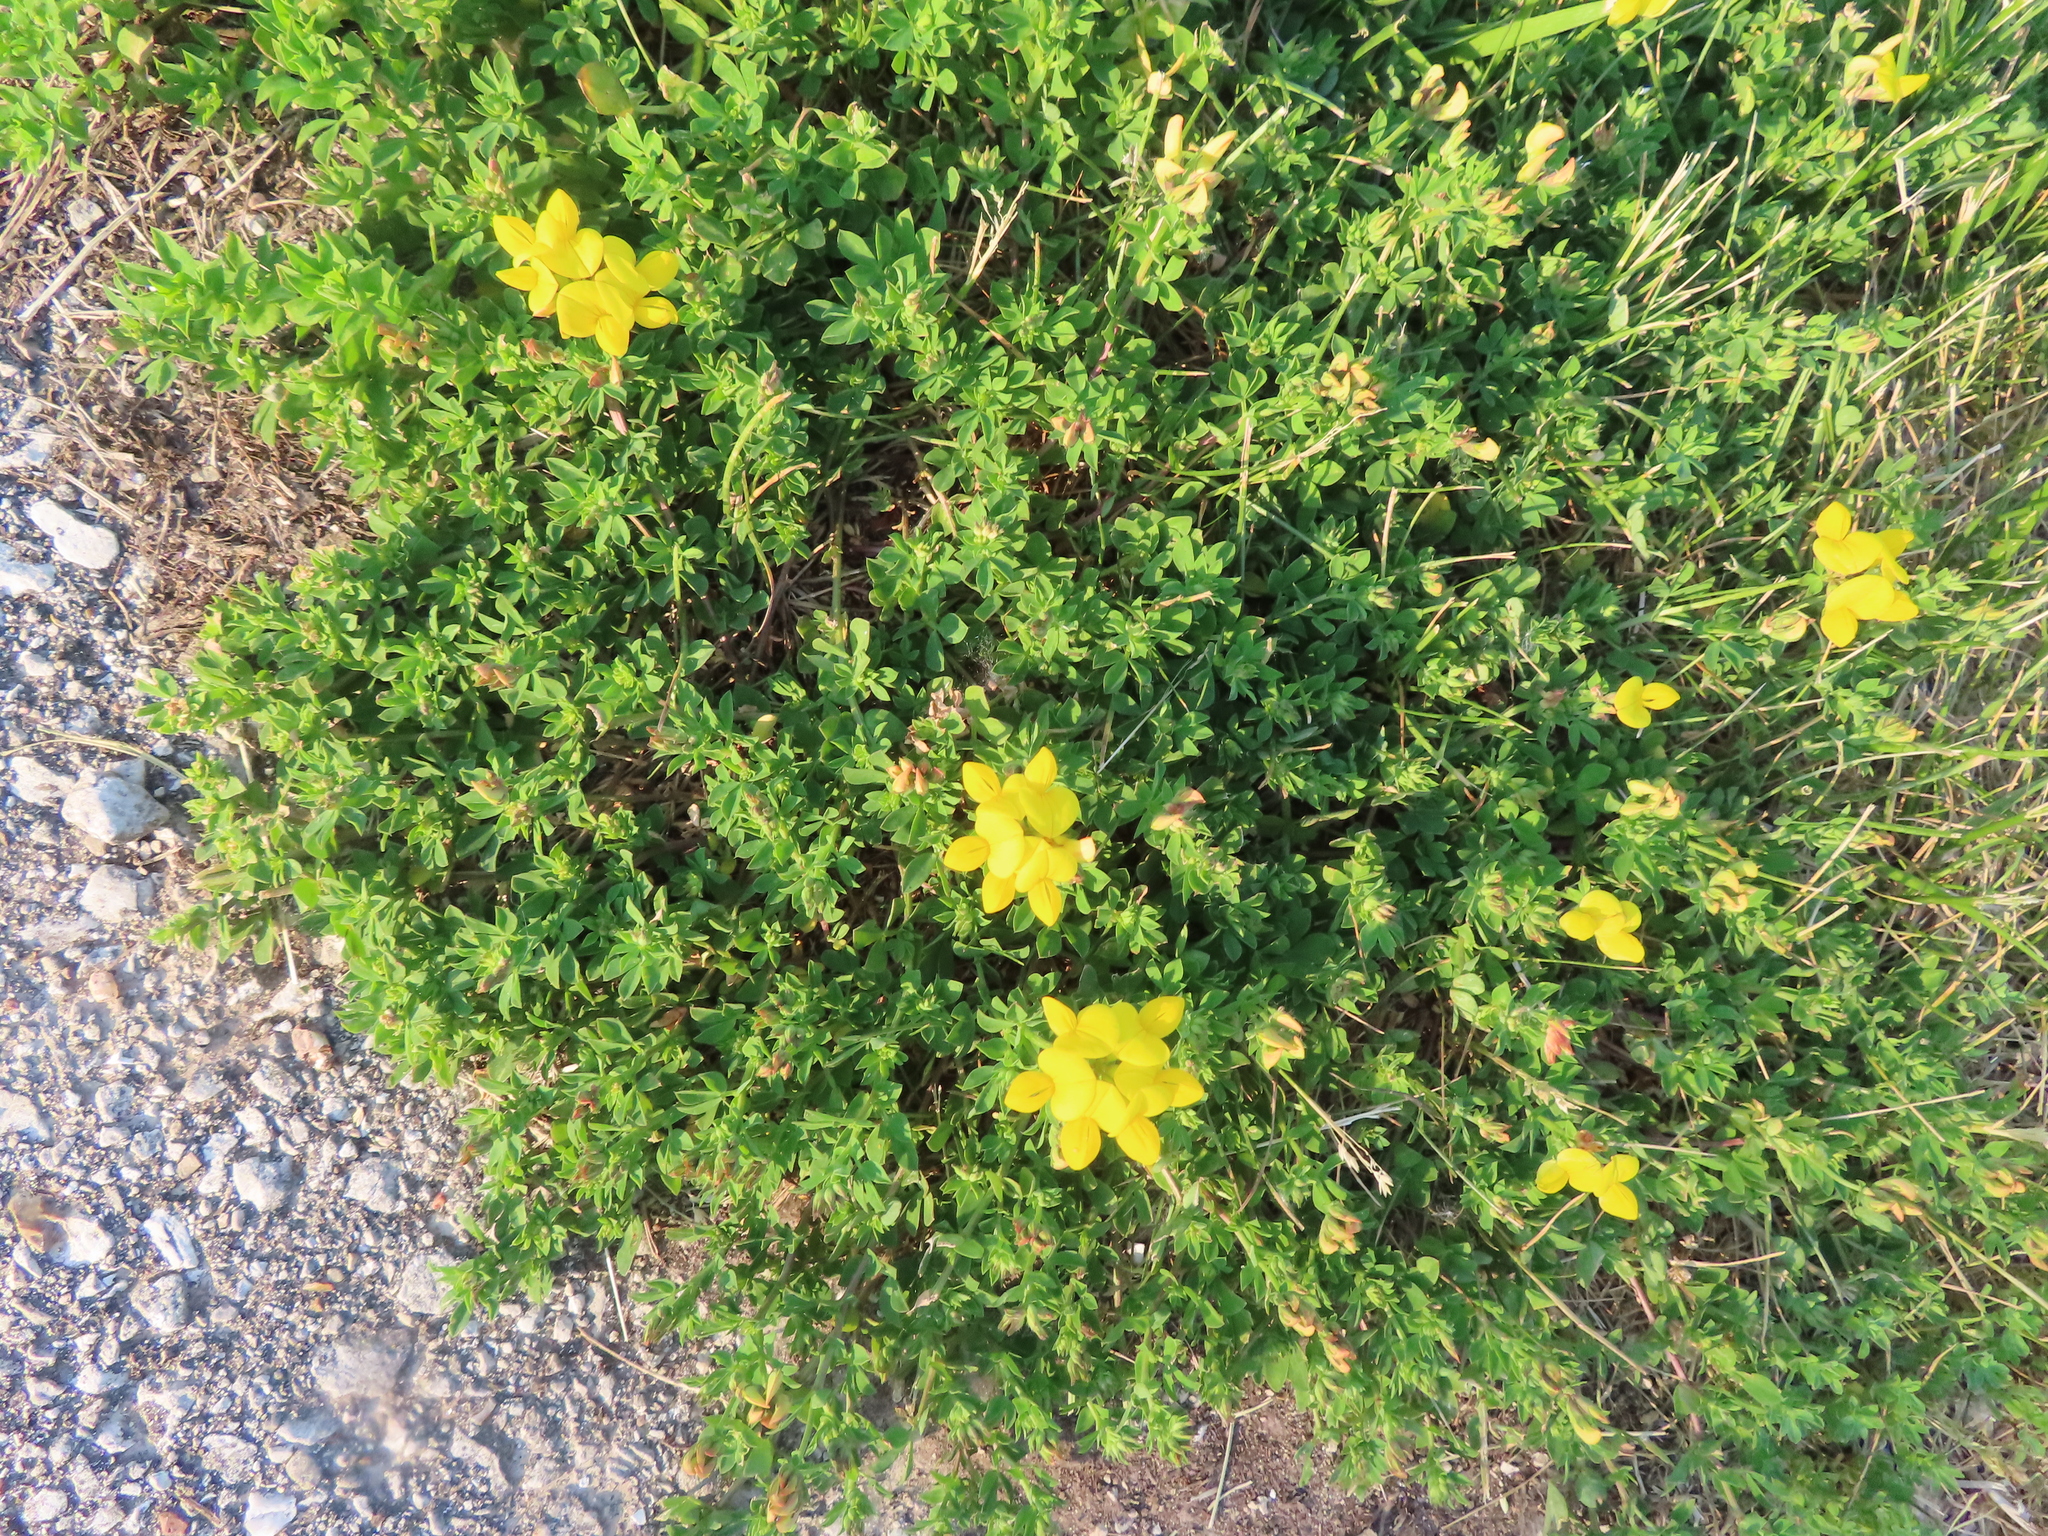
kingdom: Plantae
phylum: Tracheophyta
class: Magnoliopsida
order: Fabales
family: Fabaceae
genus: Lotus
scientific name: Lotus corniculatus
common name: Common bird's-foot-trefoil
